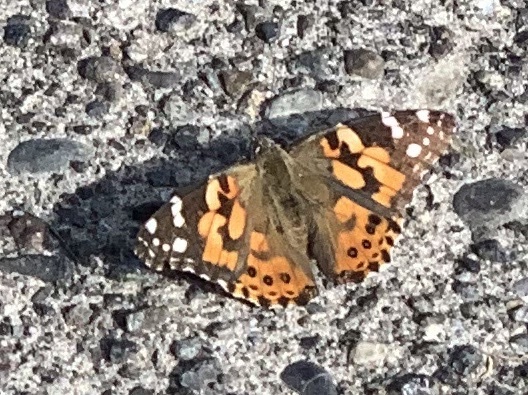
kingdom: Animalia
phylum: Arthropoda
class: Insecta
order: Lepidoptera
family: Nymphalidae
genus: Vanessa
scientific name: Vanessa cardui
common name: Painted lady
